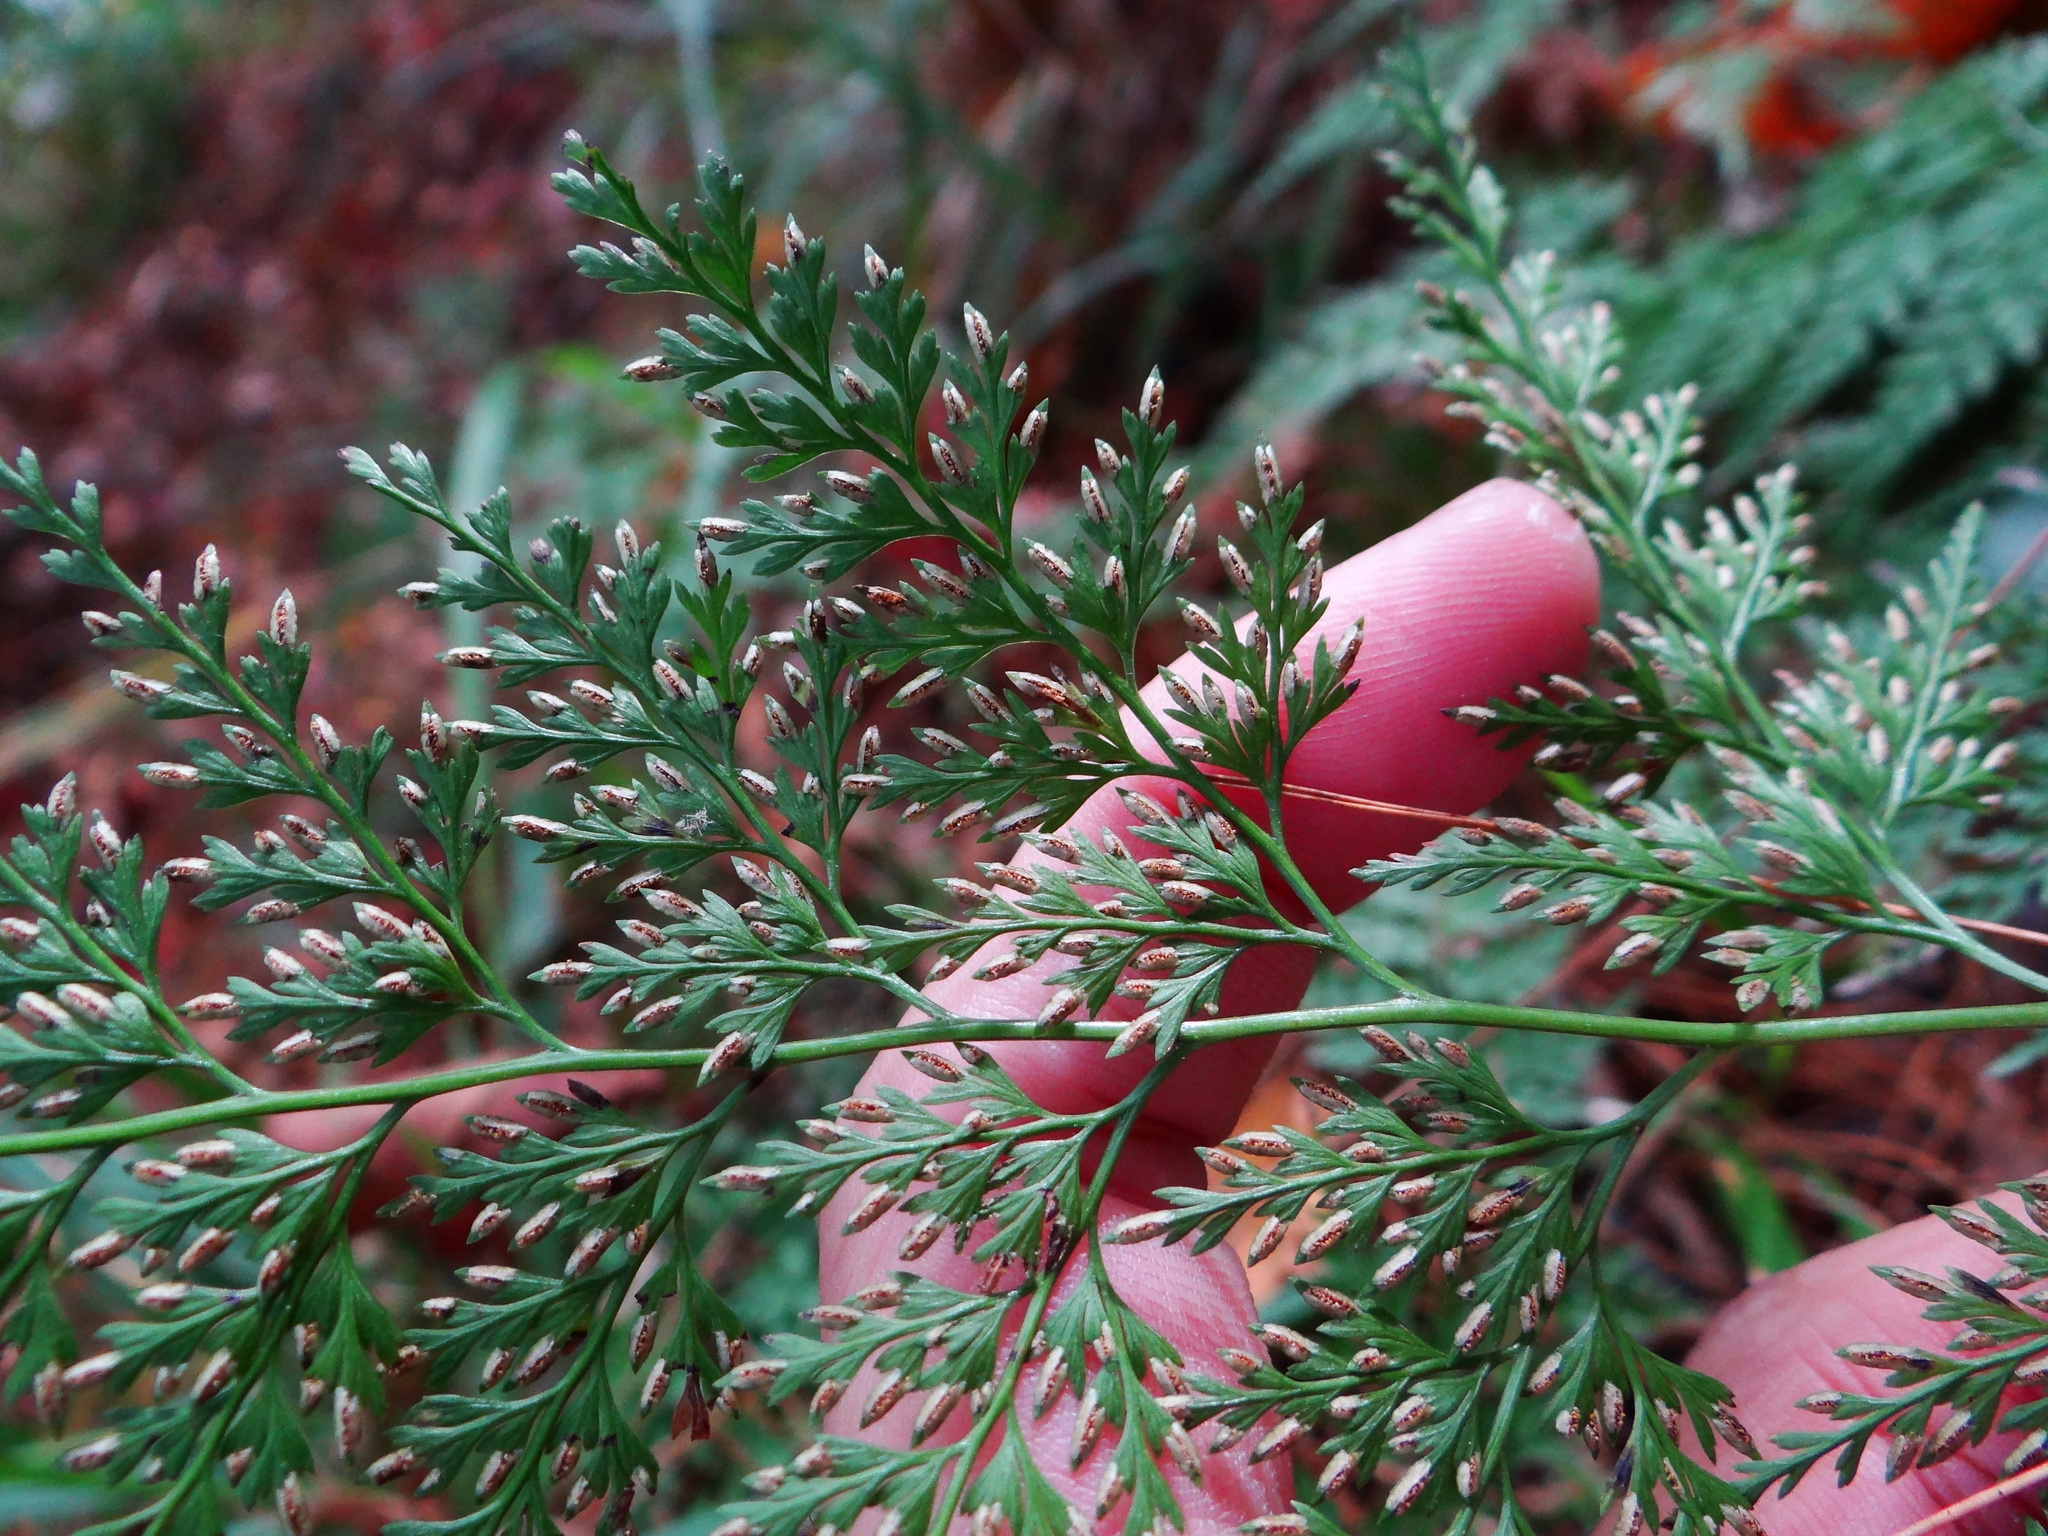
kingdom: Plantae
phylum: Tracheophyta
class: Polypodiopsida
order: Polypodiales
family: Pteridaceae
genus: Onychium
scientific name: Onychium lucidum
